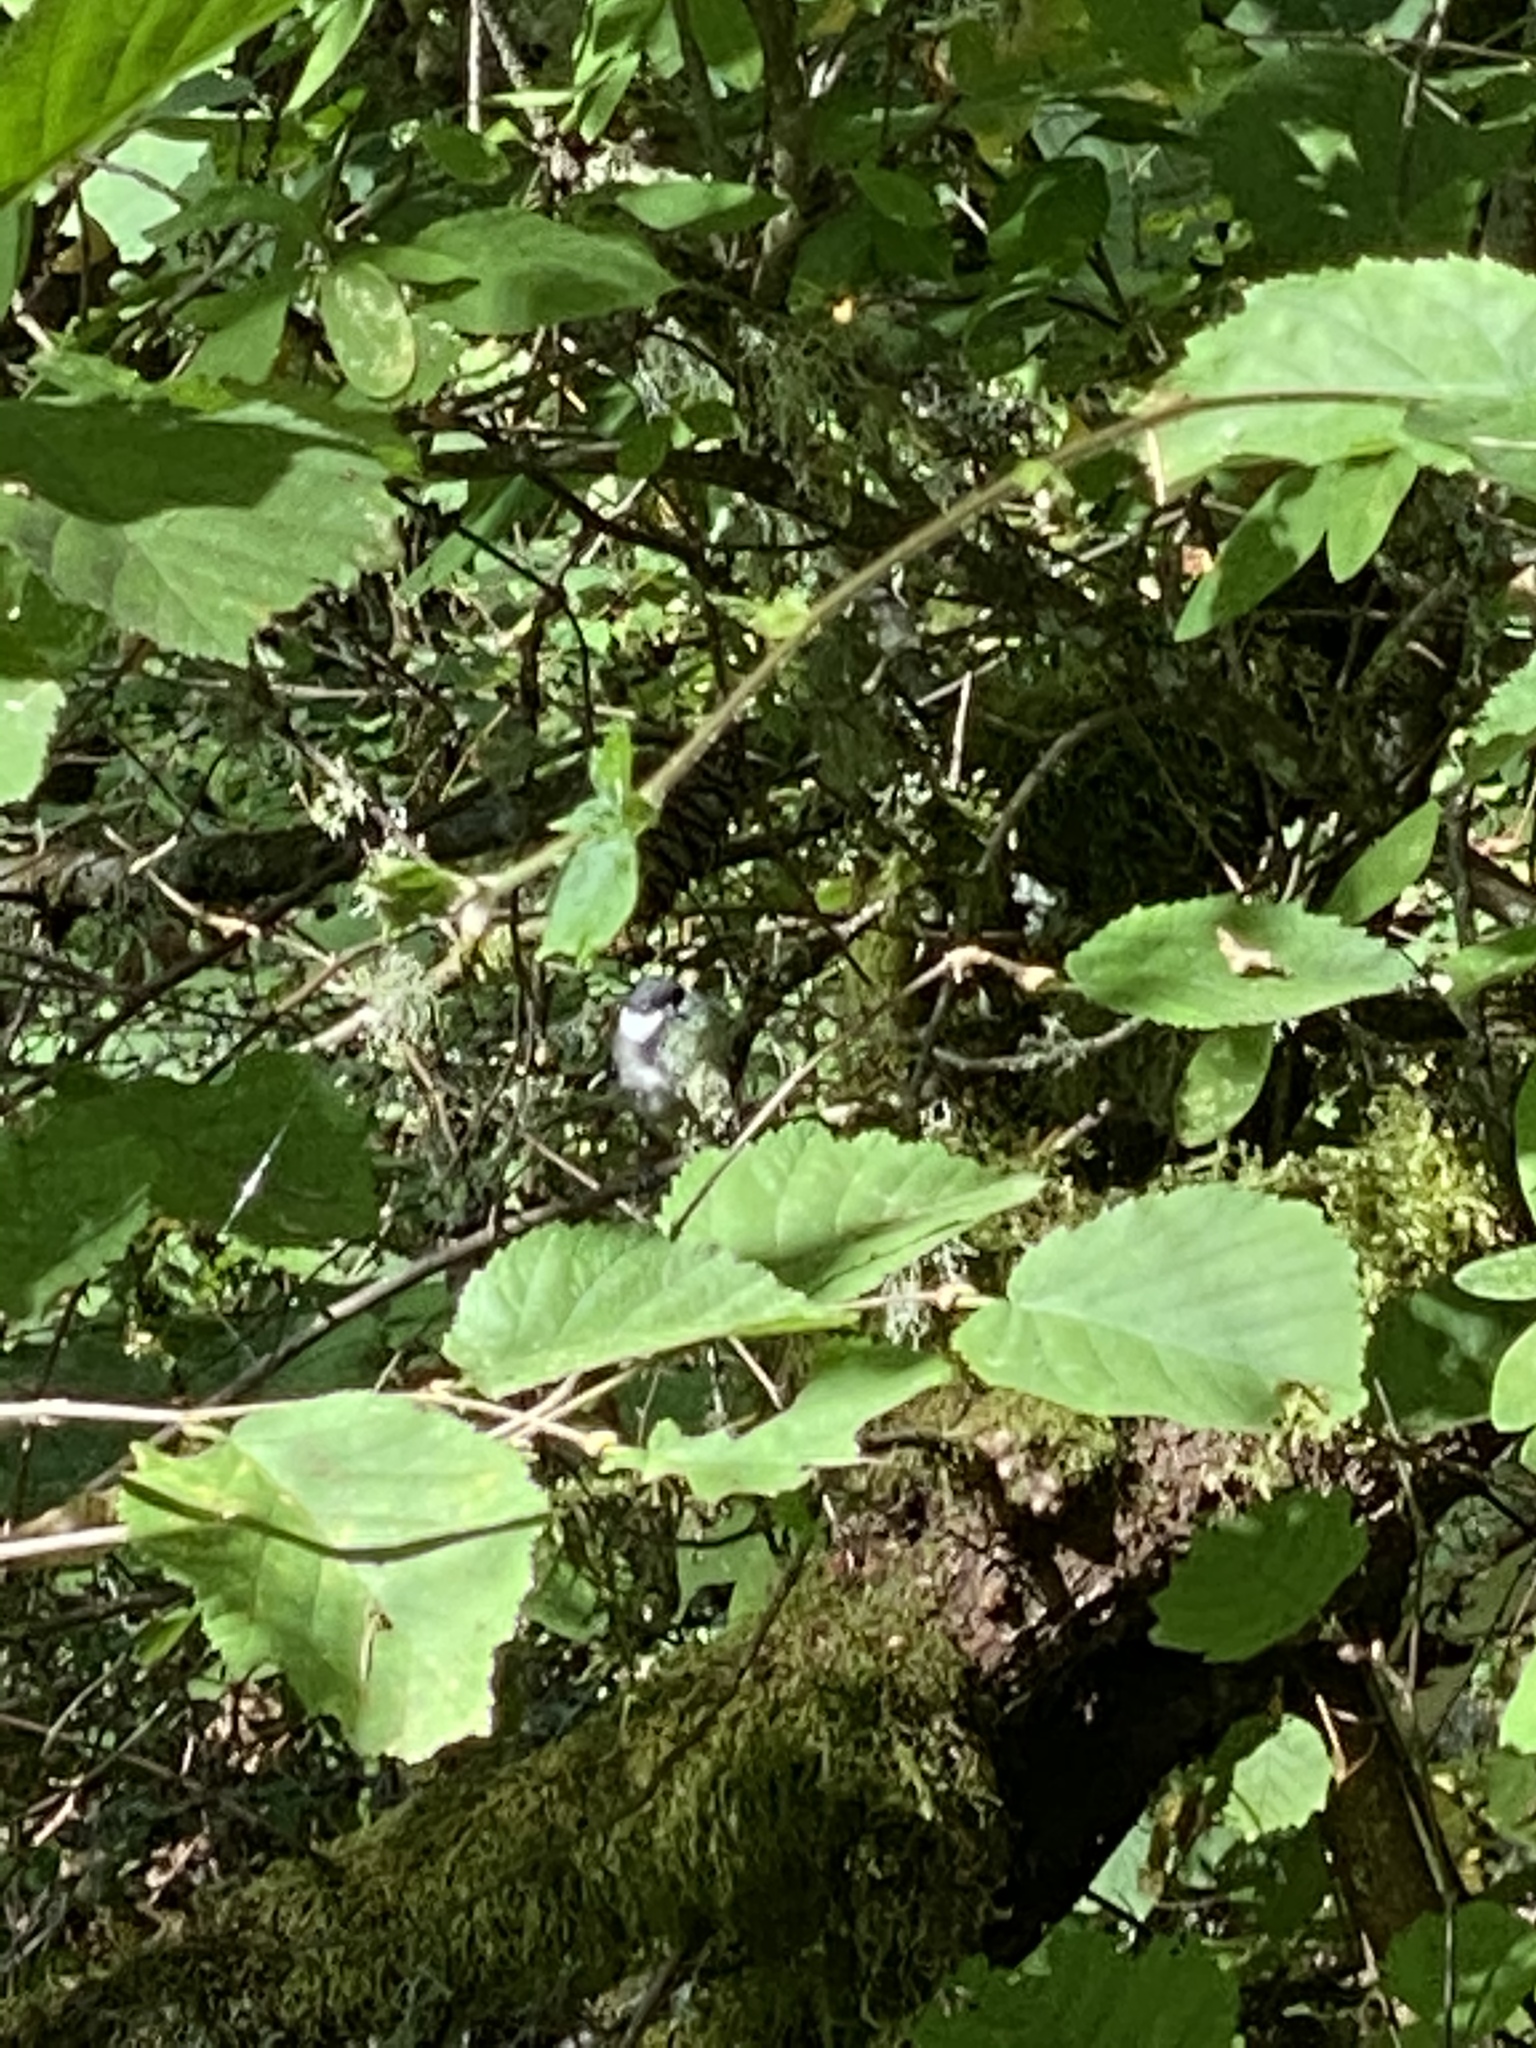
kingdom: Animalia
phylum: Chordata
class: Aves
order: Passeriformes
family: Paridae
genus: Poecile
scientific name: Poecile atricapillus
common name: Black-capped chickadee
